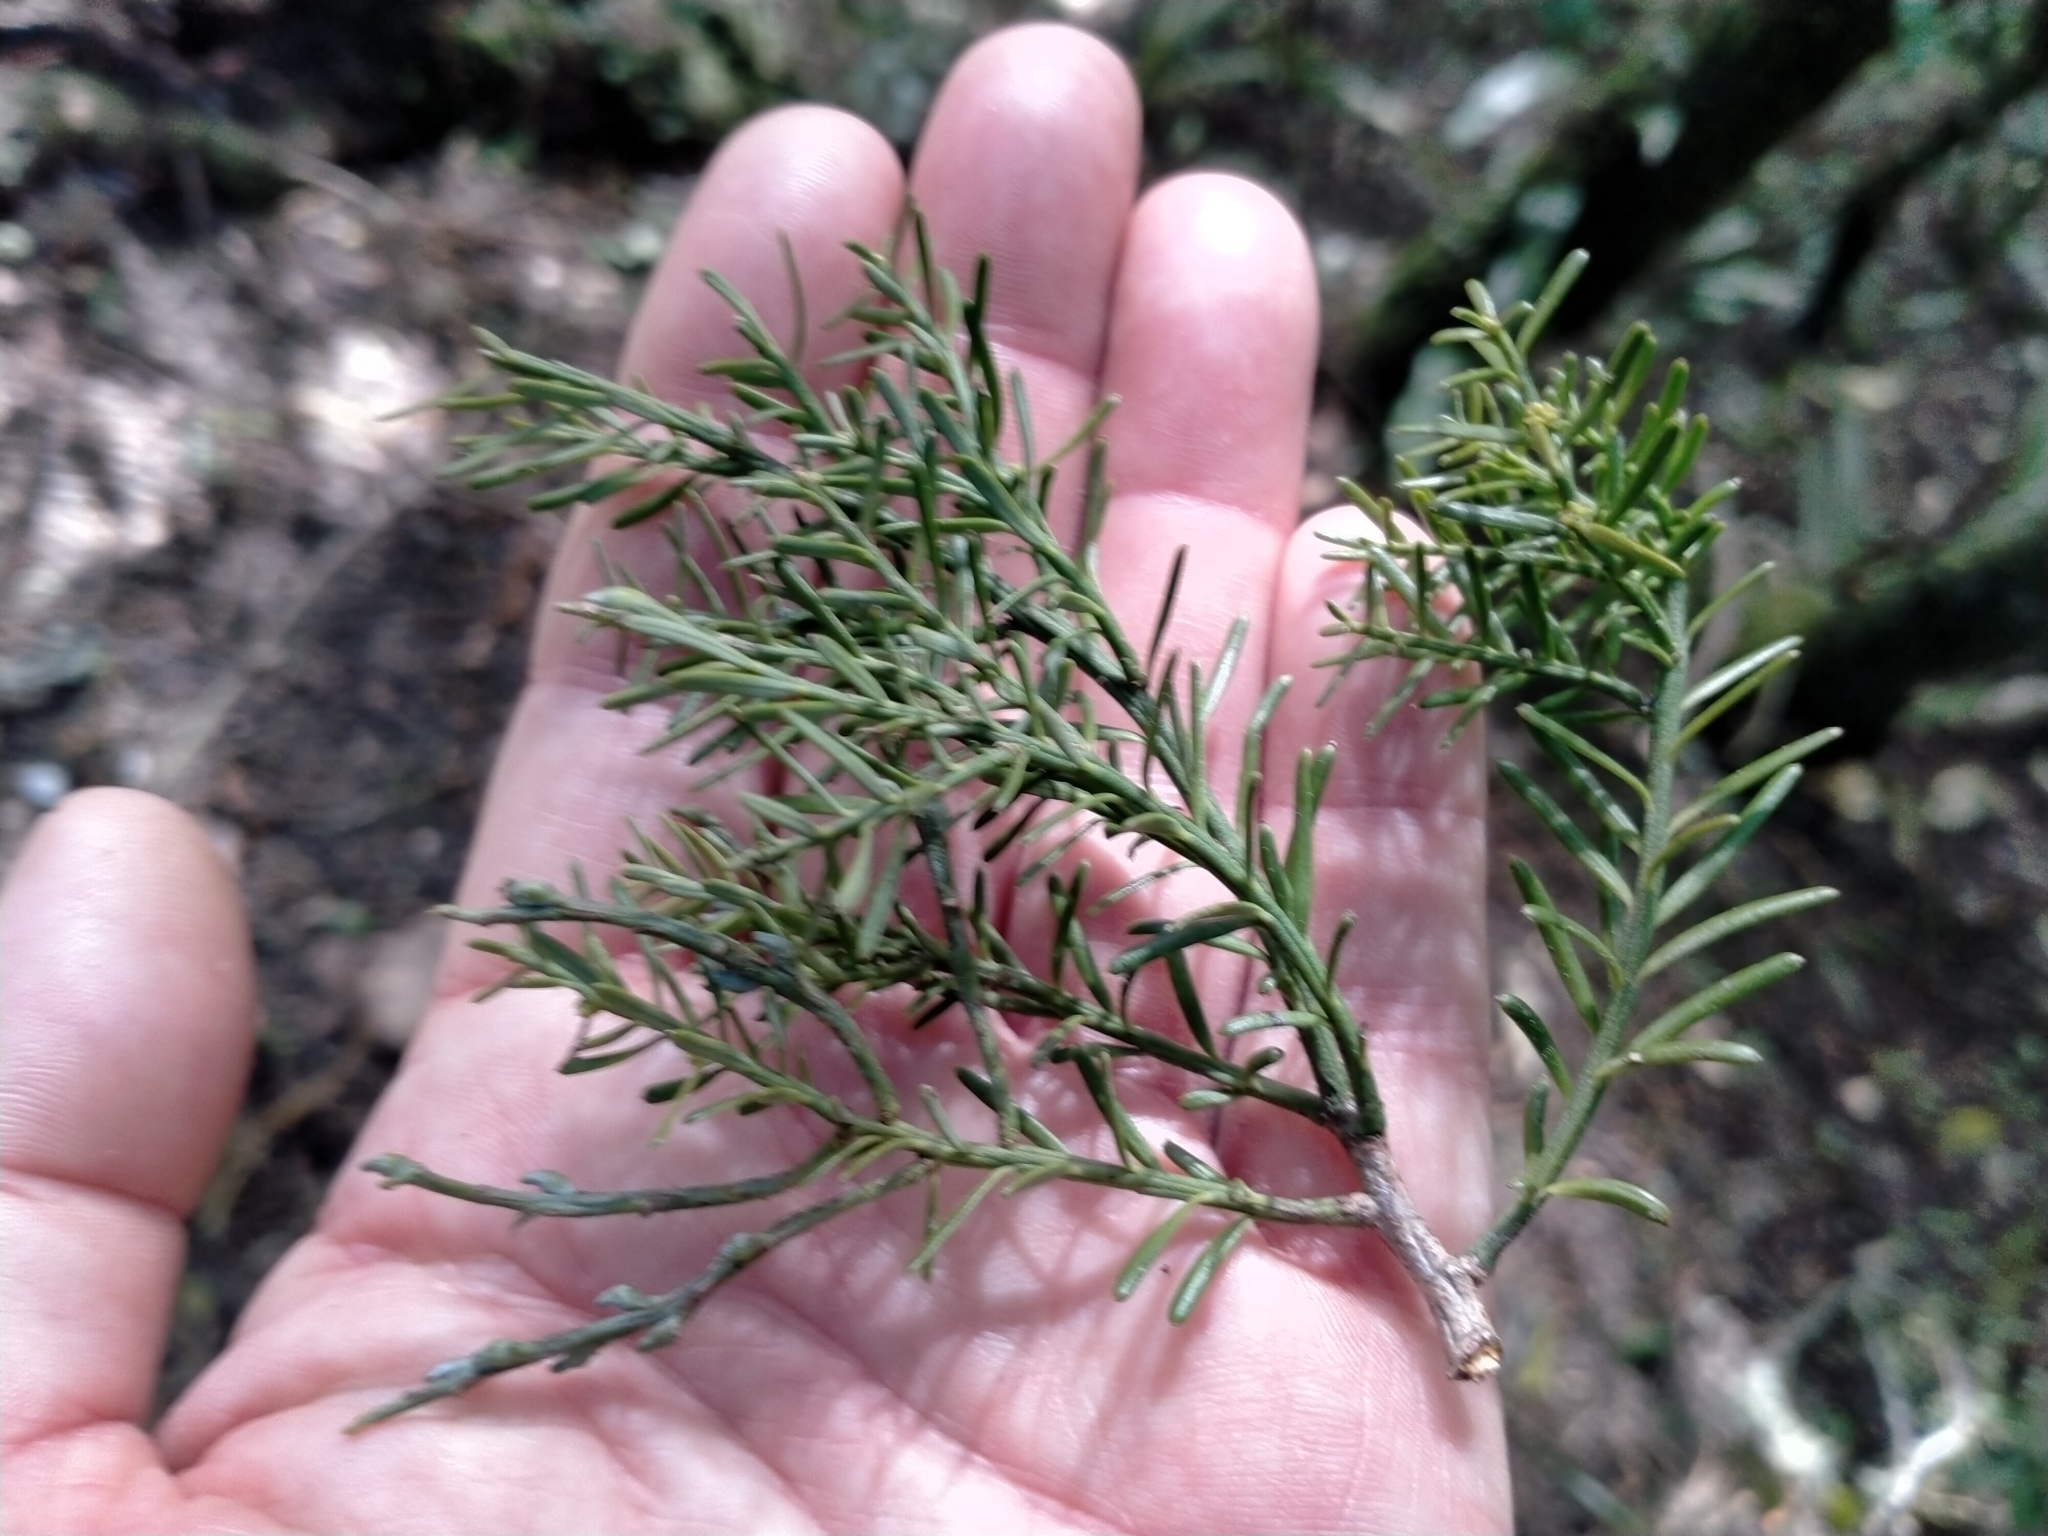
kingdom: Plantae
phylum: Tracheophyta
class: Pinopsida
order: Pinales
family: Podocarpaceae
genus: Prumnopitys
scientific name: Prumnopitys taxifolia
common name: Matai
